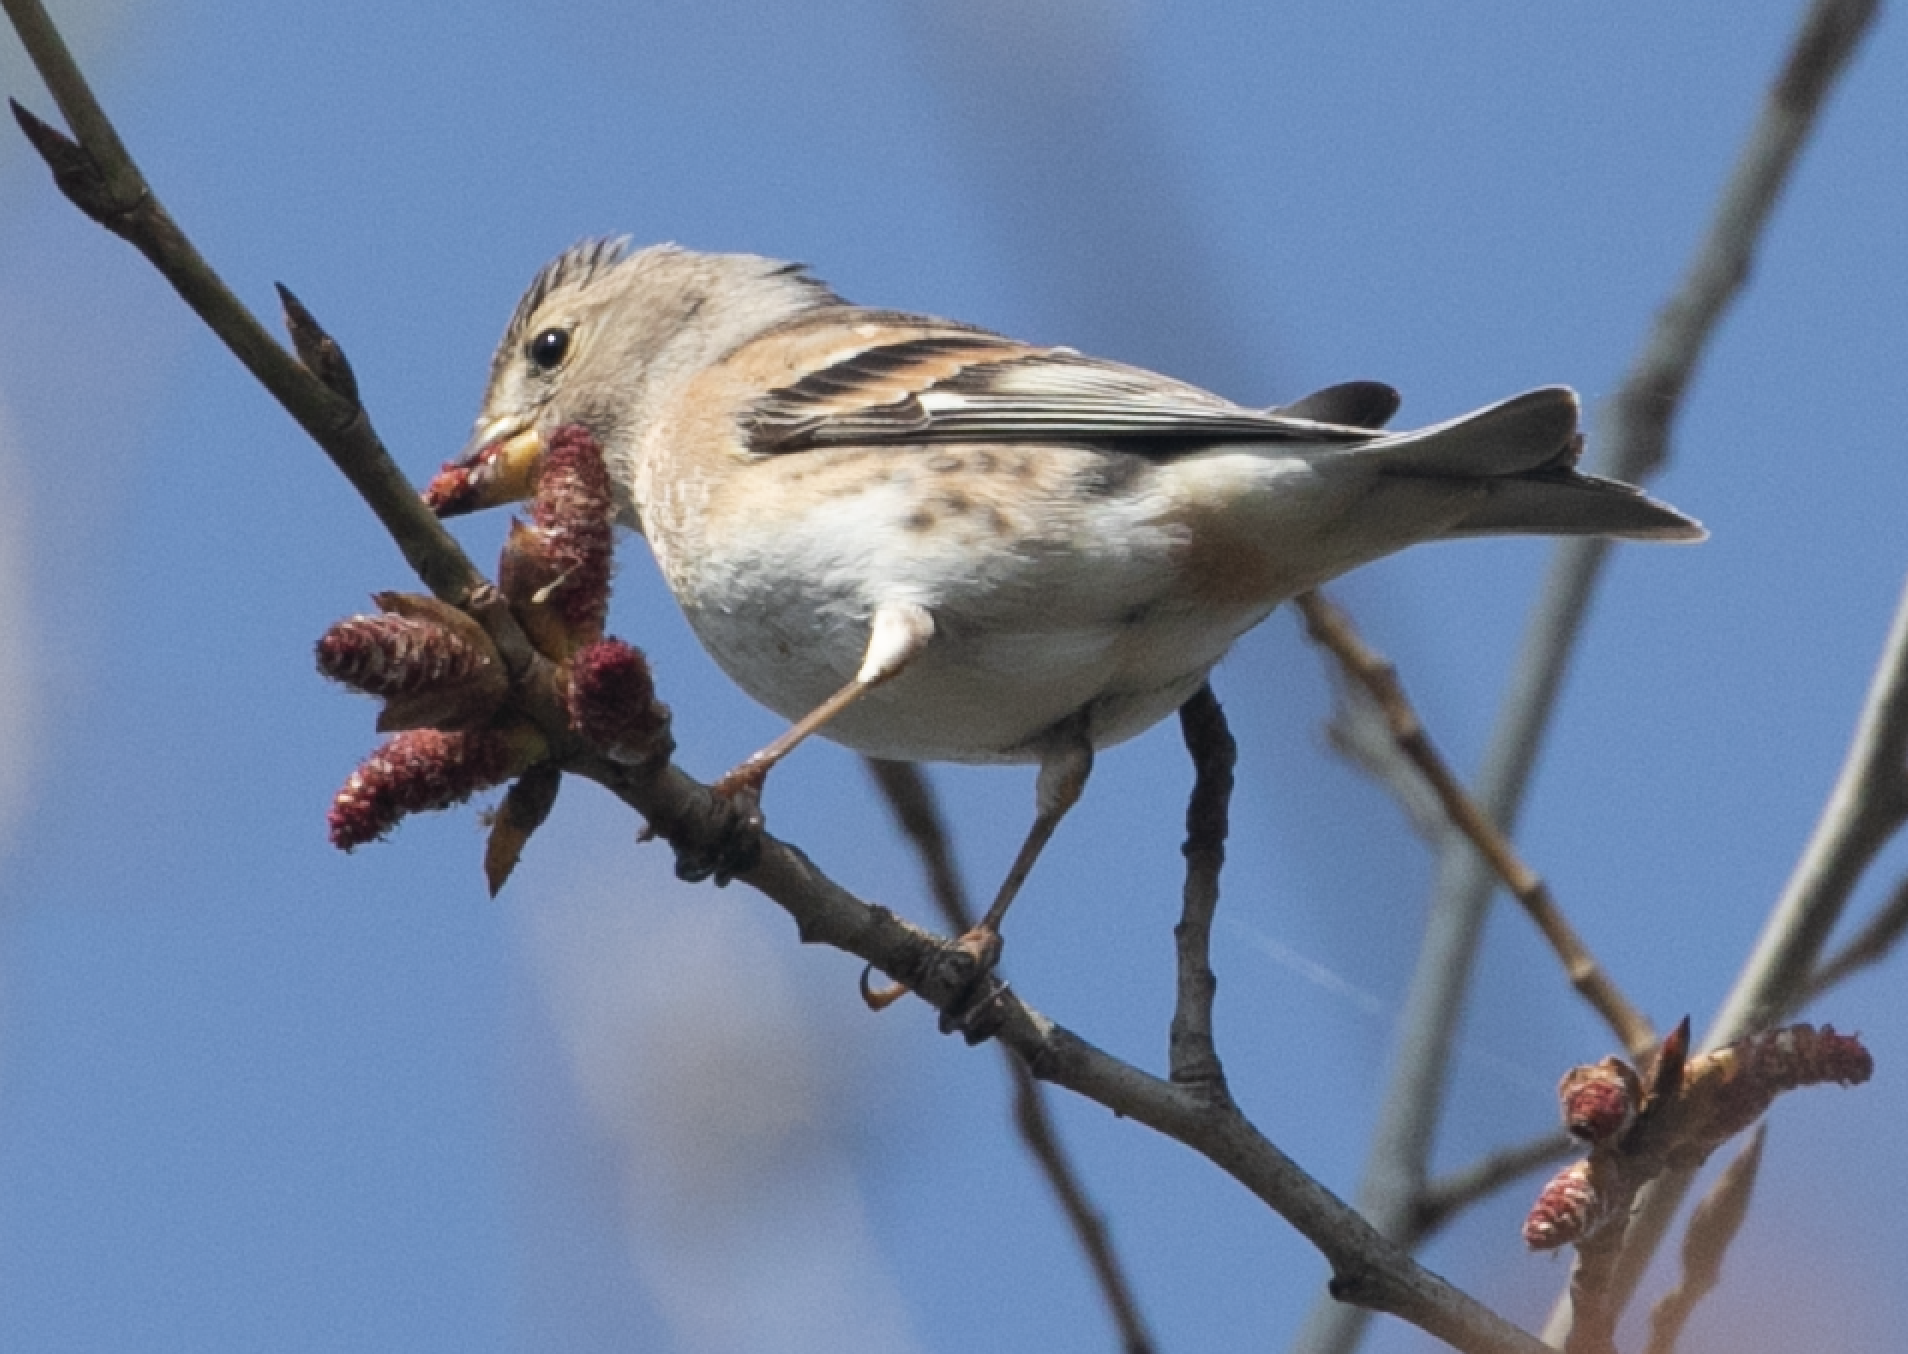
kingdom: Animalia
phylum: Chordata
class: Aves
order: Passeriformes
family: Fringillidae
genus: Fringilla
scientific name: Fringilla montifringilla
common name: Brambling
